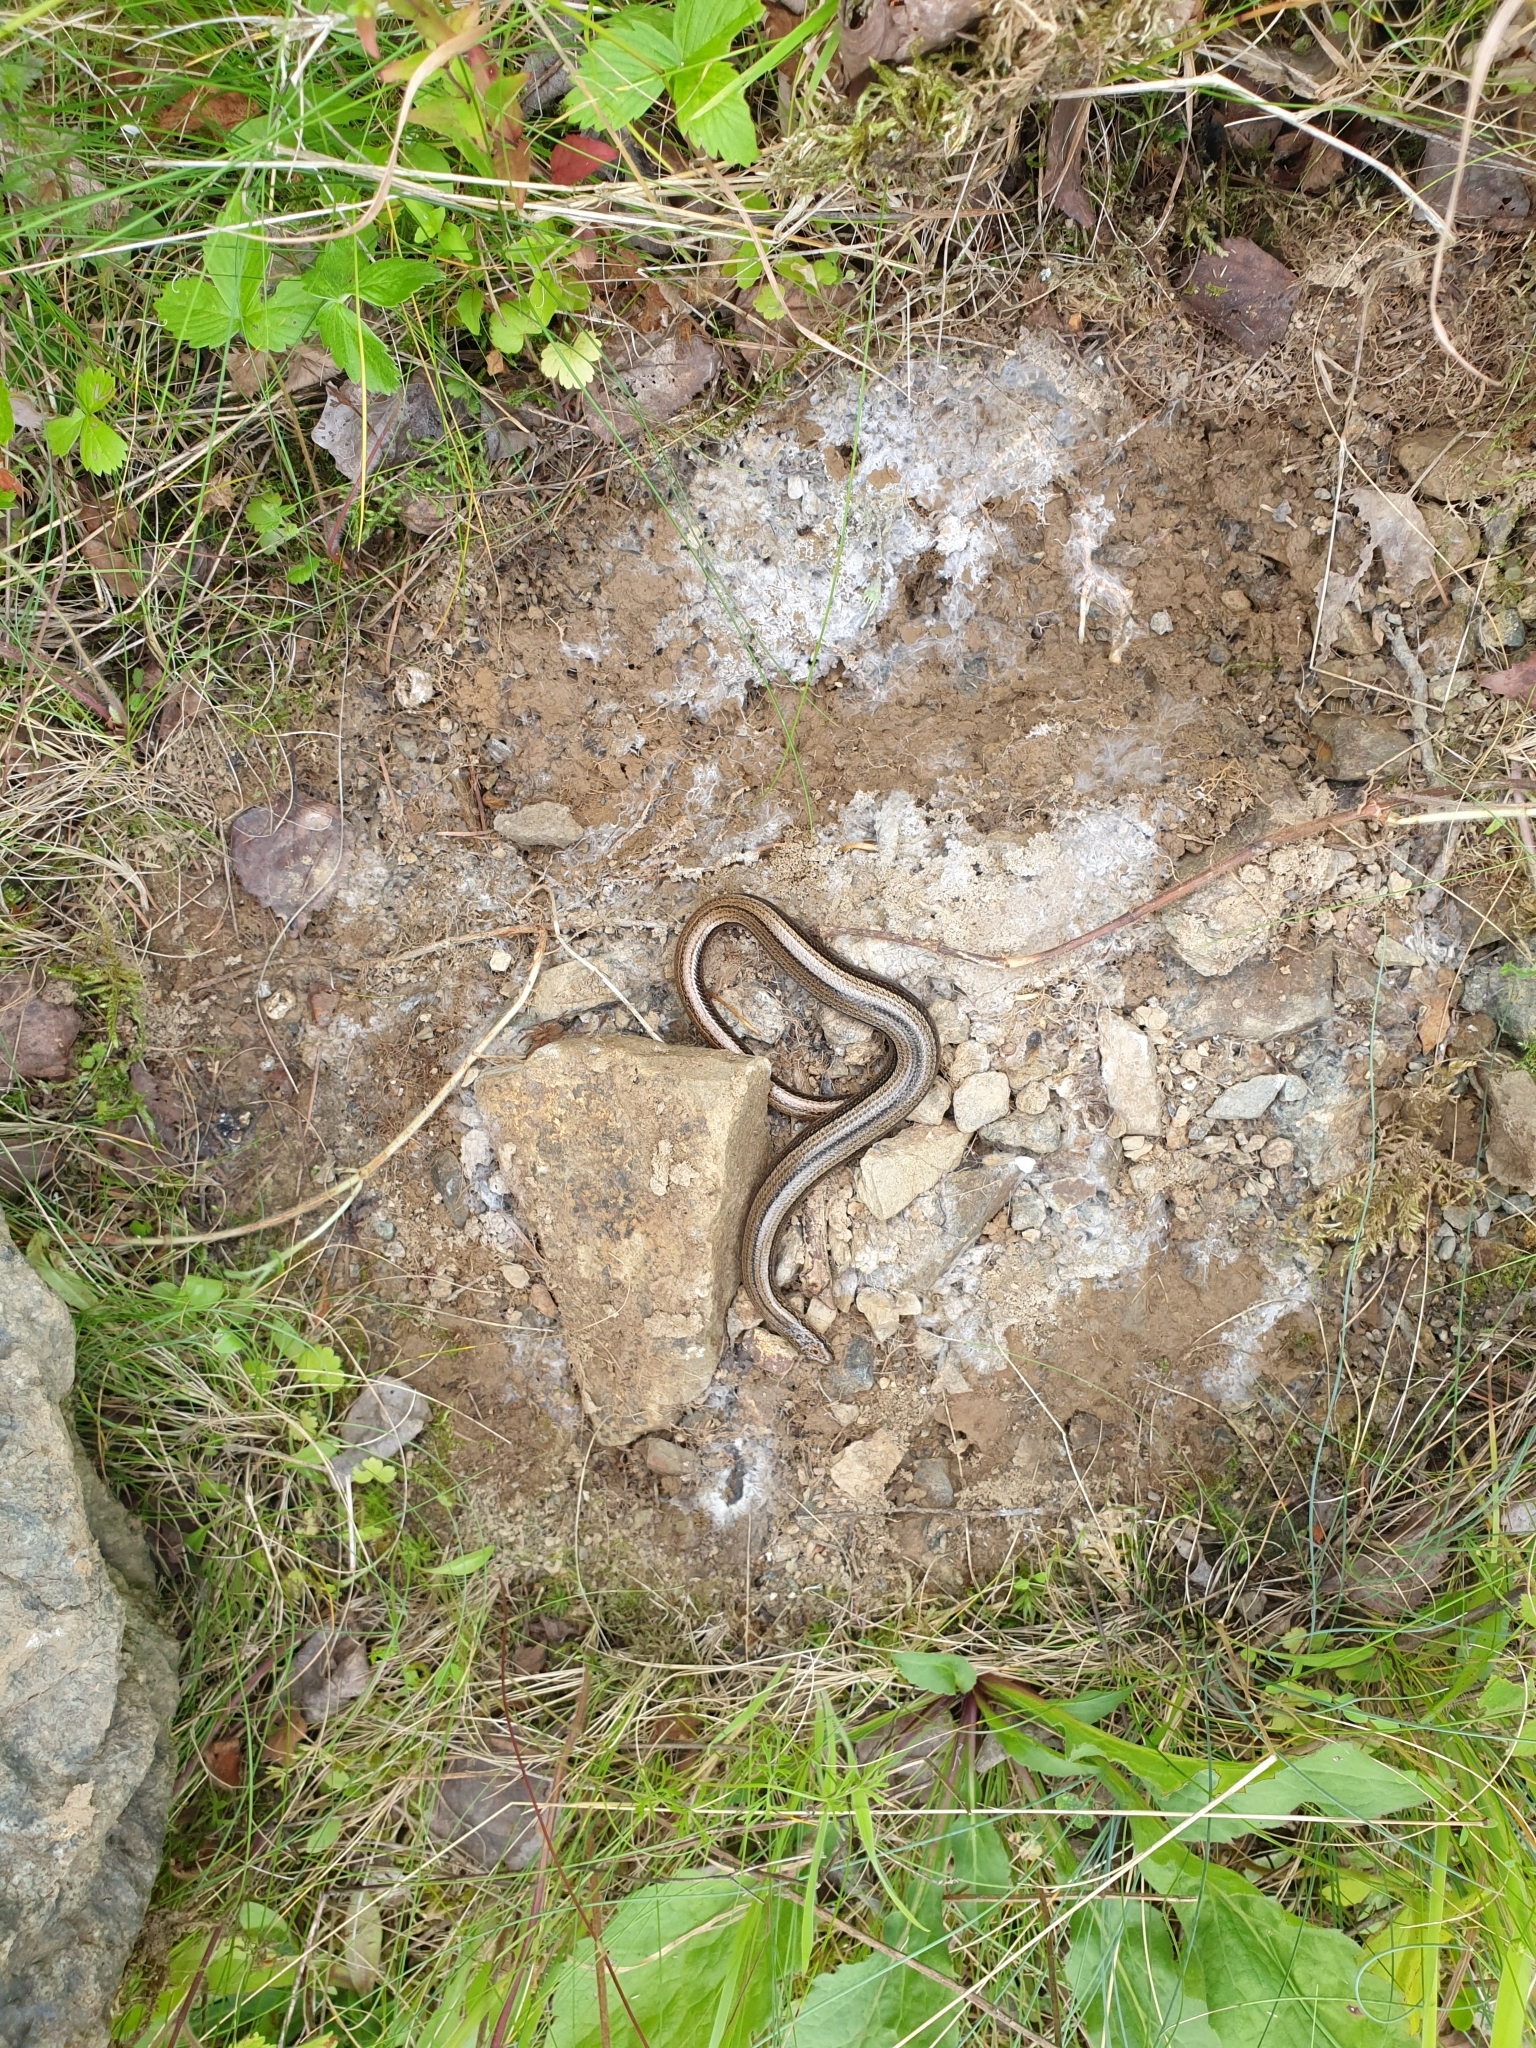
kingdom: Animalia
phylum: Chordata
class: Squamata
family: Anguidae
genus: Anguis
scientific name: Anguis fragilis
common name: Slow worm
